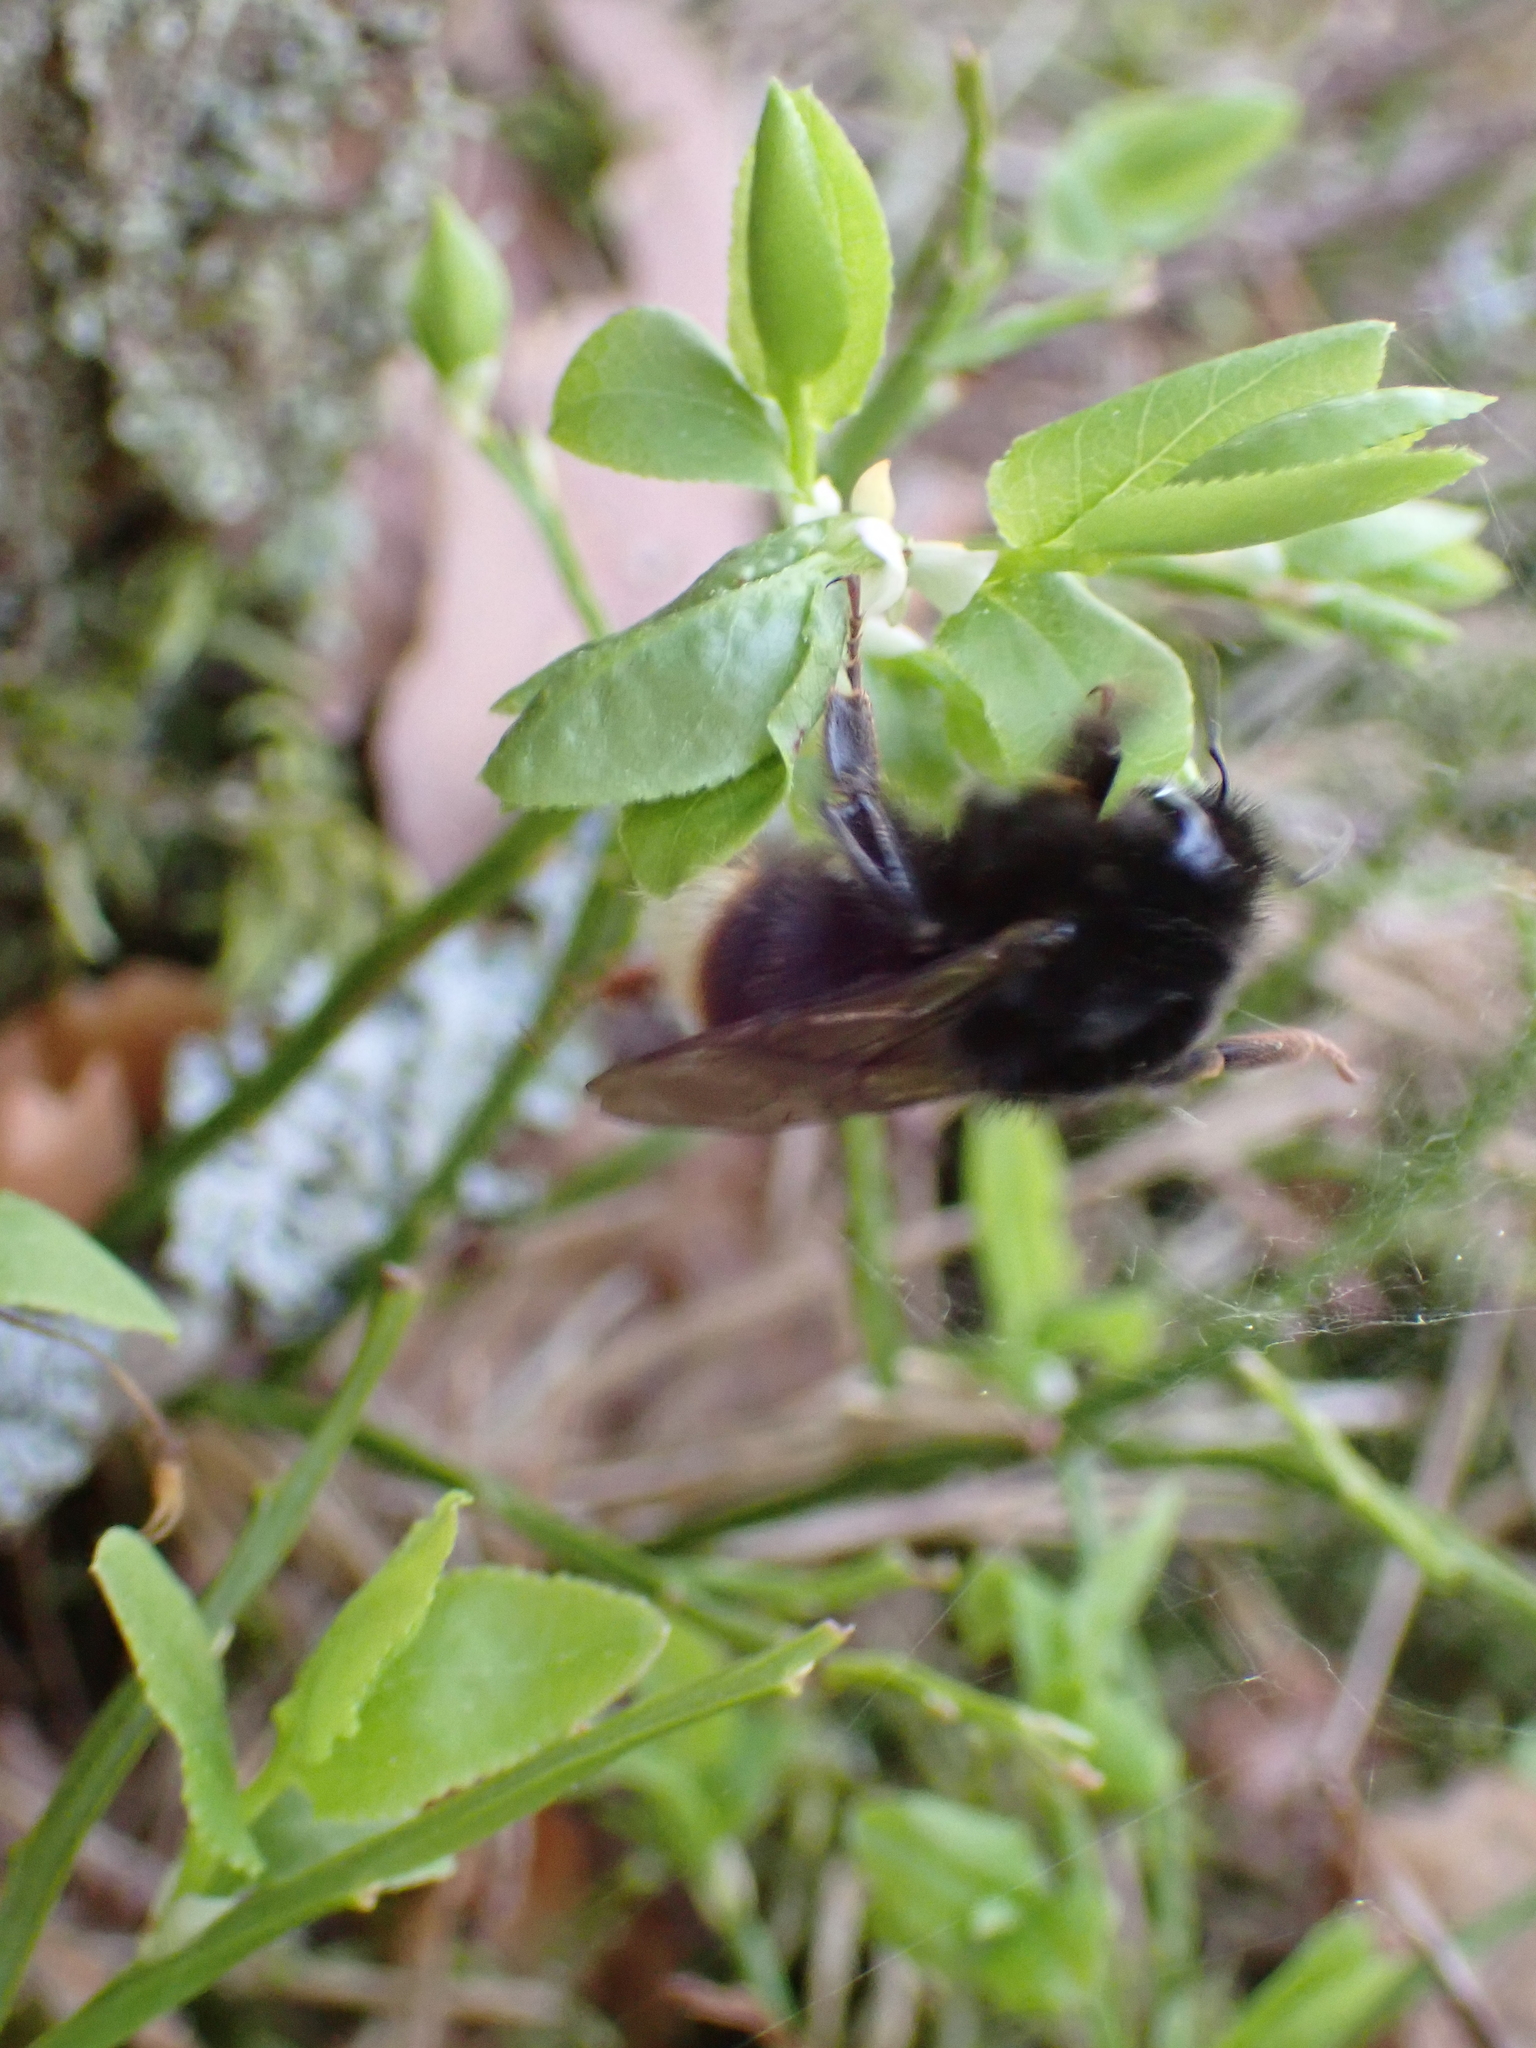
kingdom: Animalia
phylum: Arthropoda
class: Insecta
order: Hymenoptera
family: Apidae
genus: Bombus
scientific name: Bombus soroeensis
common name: Broken-belted humble-bee
